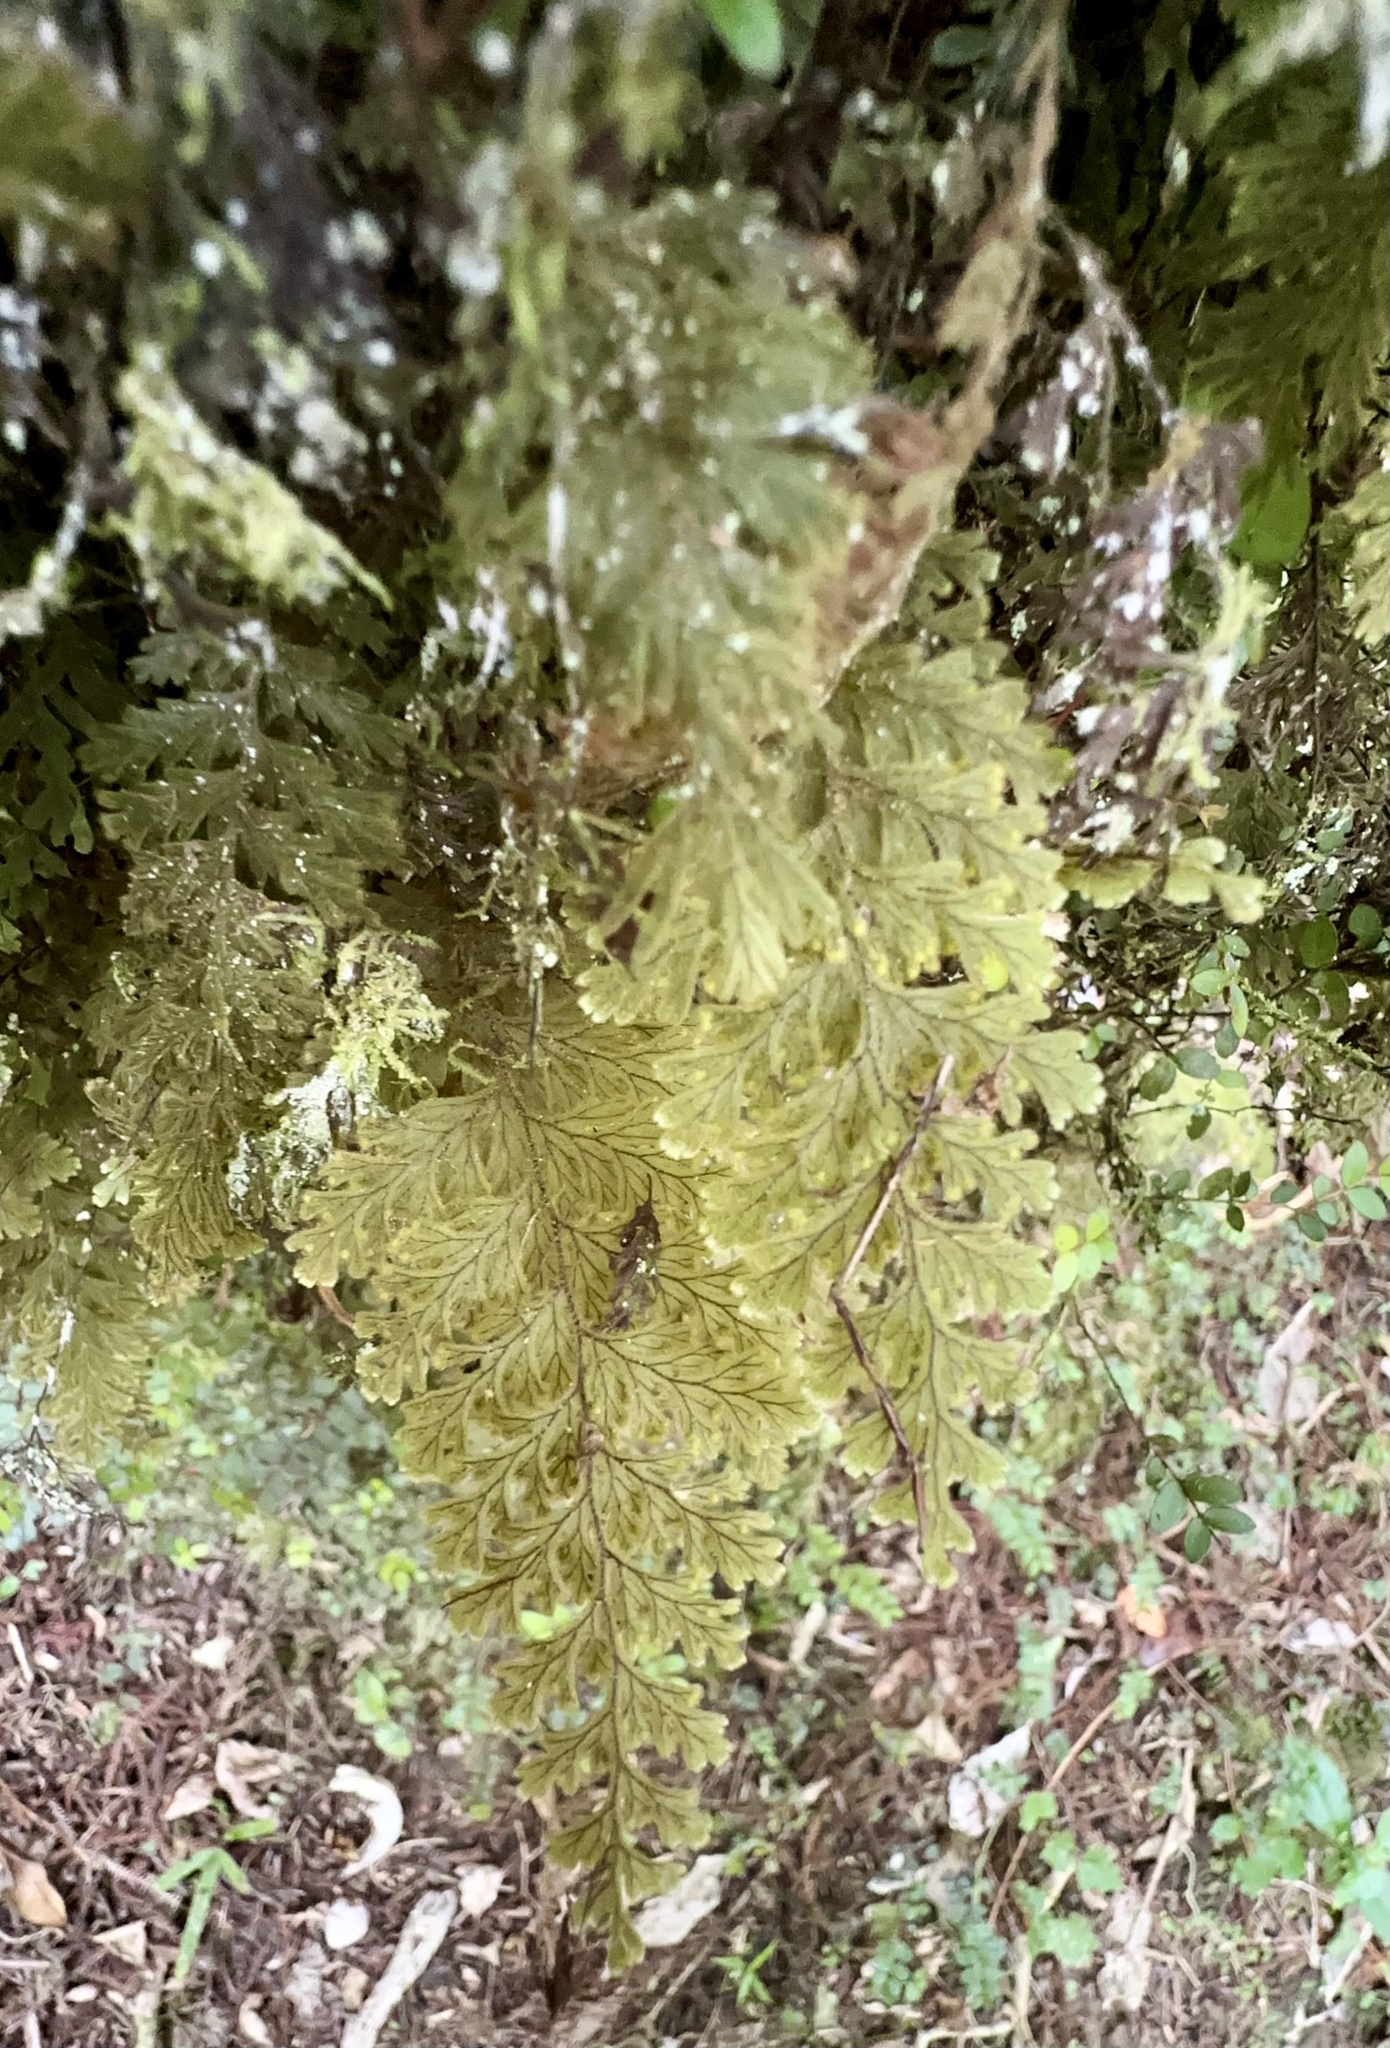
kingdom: Plantae
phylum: Tracheophyta
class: Polypodiopsida
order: Hymenophyllales
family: Hymenophyllaceae
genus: Hymenophyllum
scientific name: Hymenophyllum frankliniae
